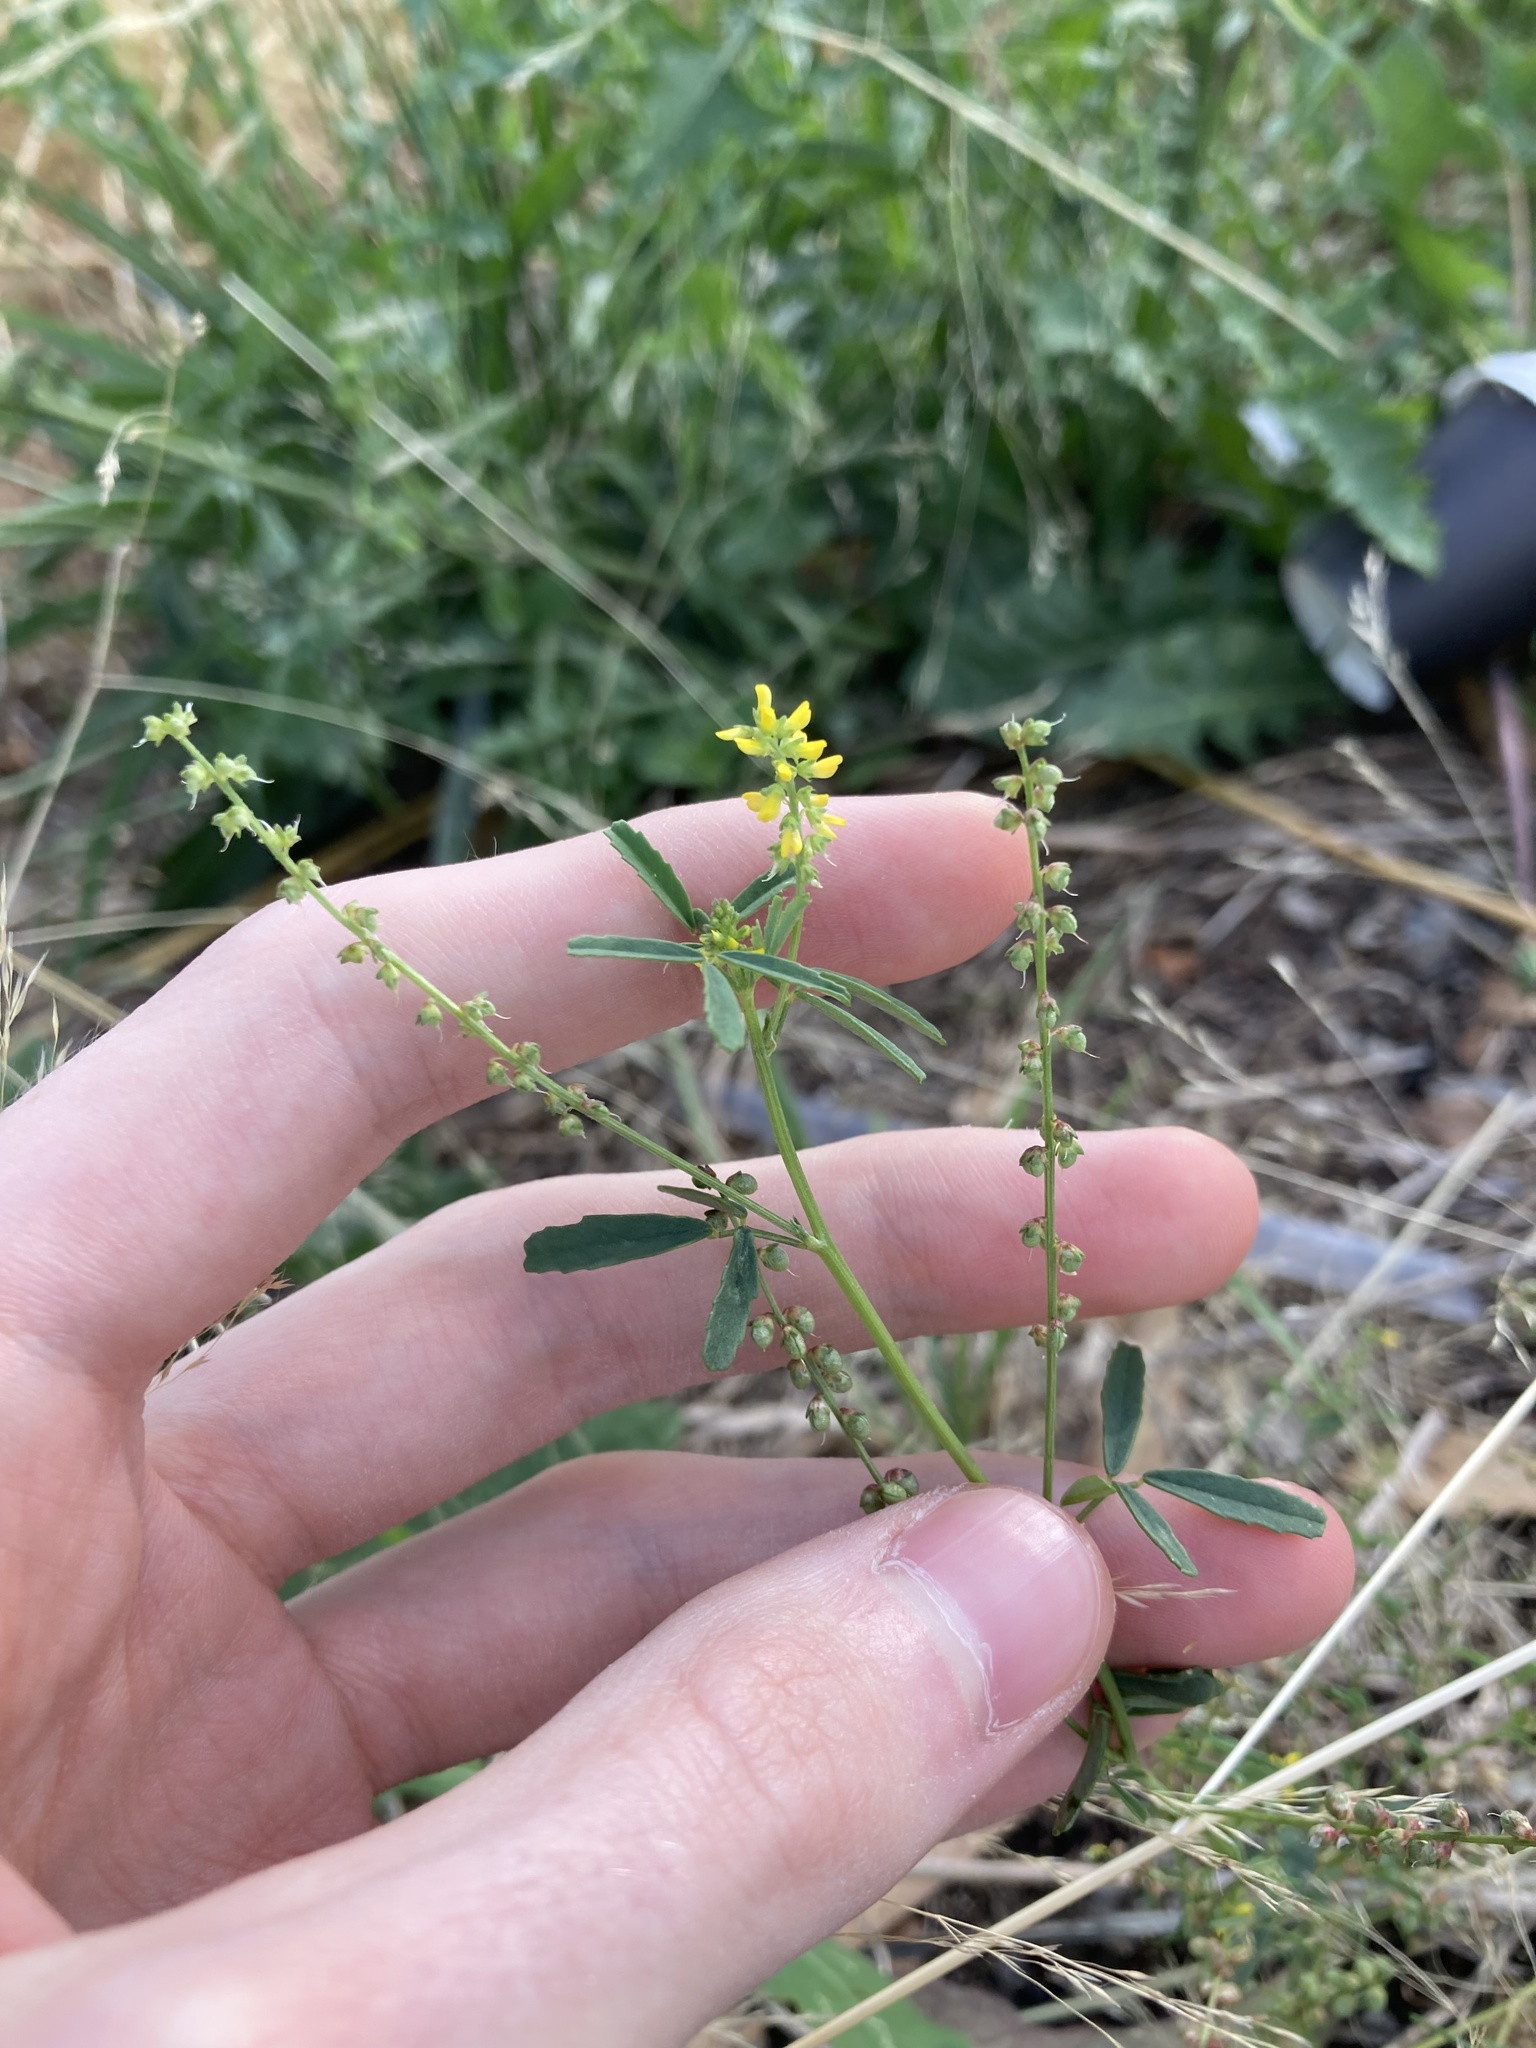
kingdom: Plantae
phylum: Tracheophyta
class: Magnoliopsida
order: Fabales
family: Fabaceae
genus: Melilotus
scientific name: Melilotus indicus
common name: Small melilot
